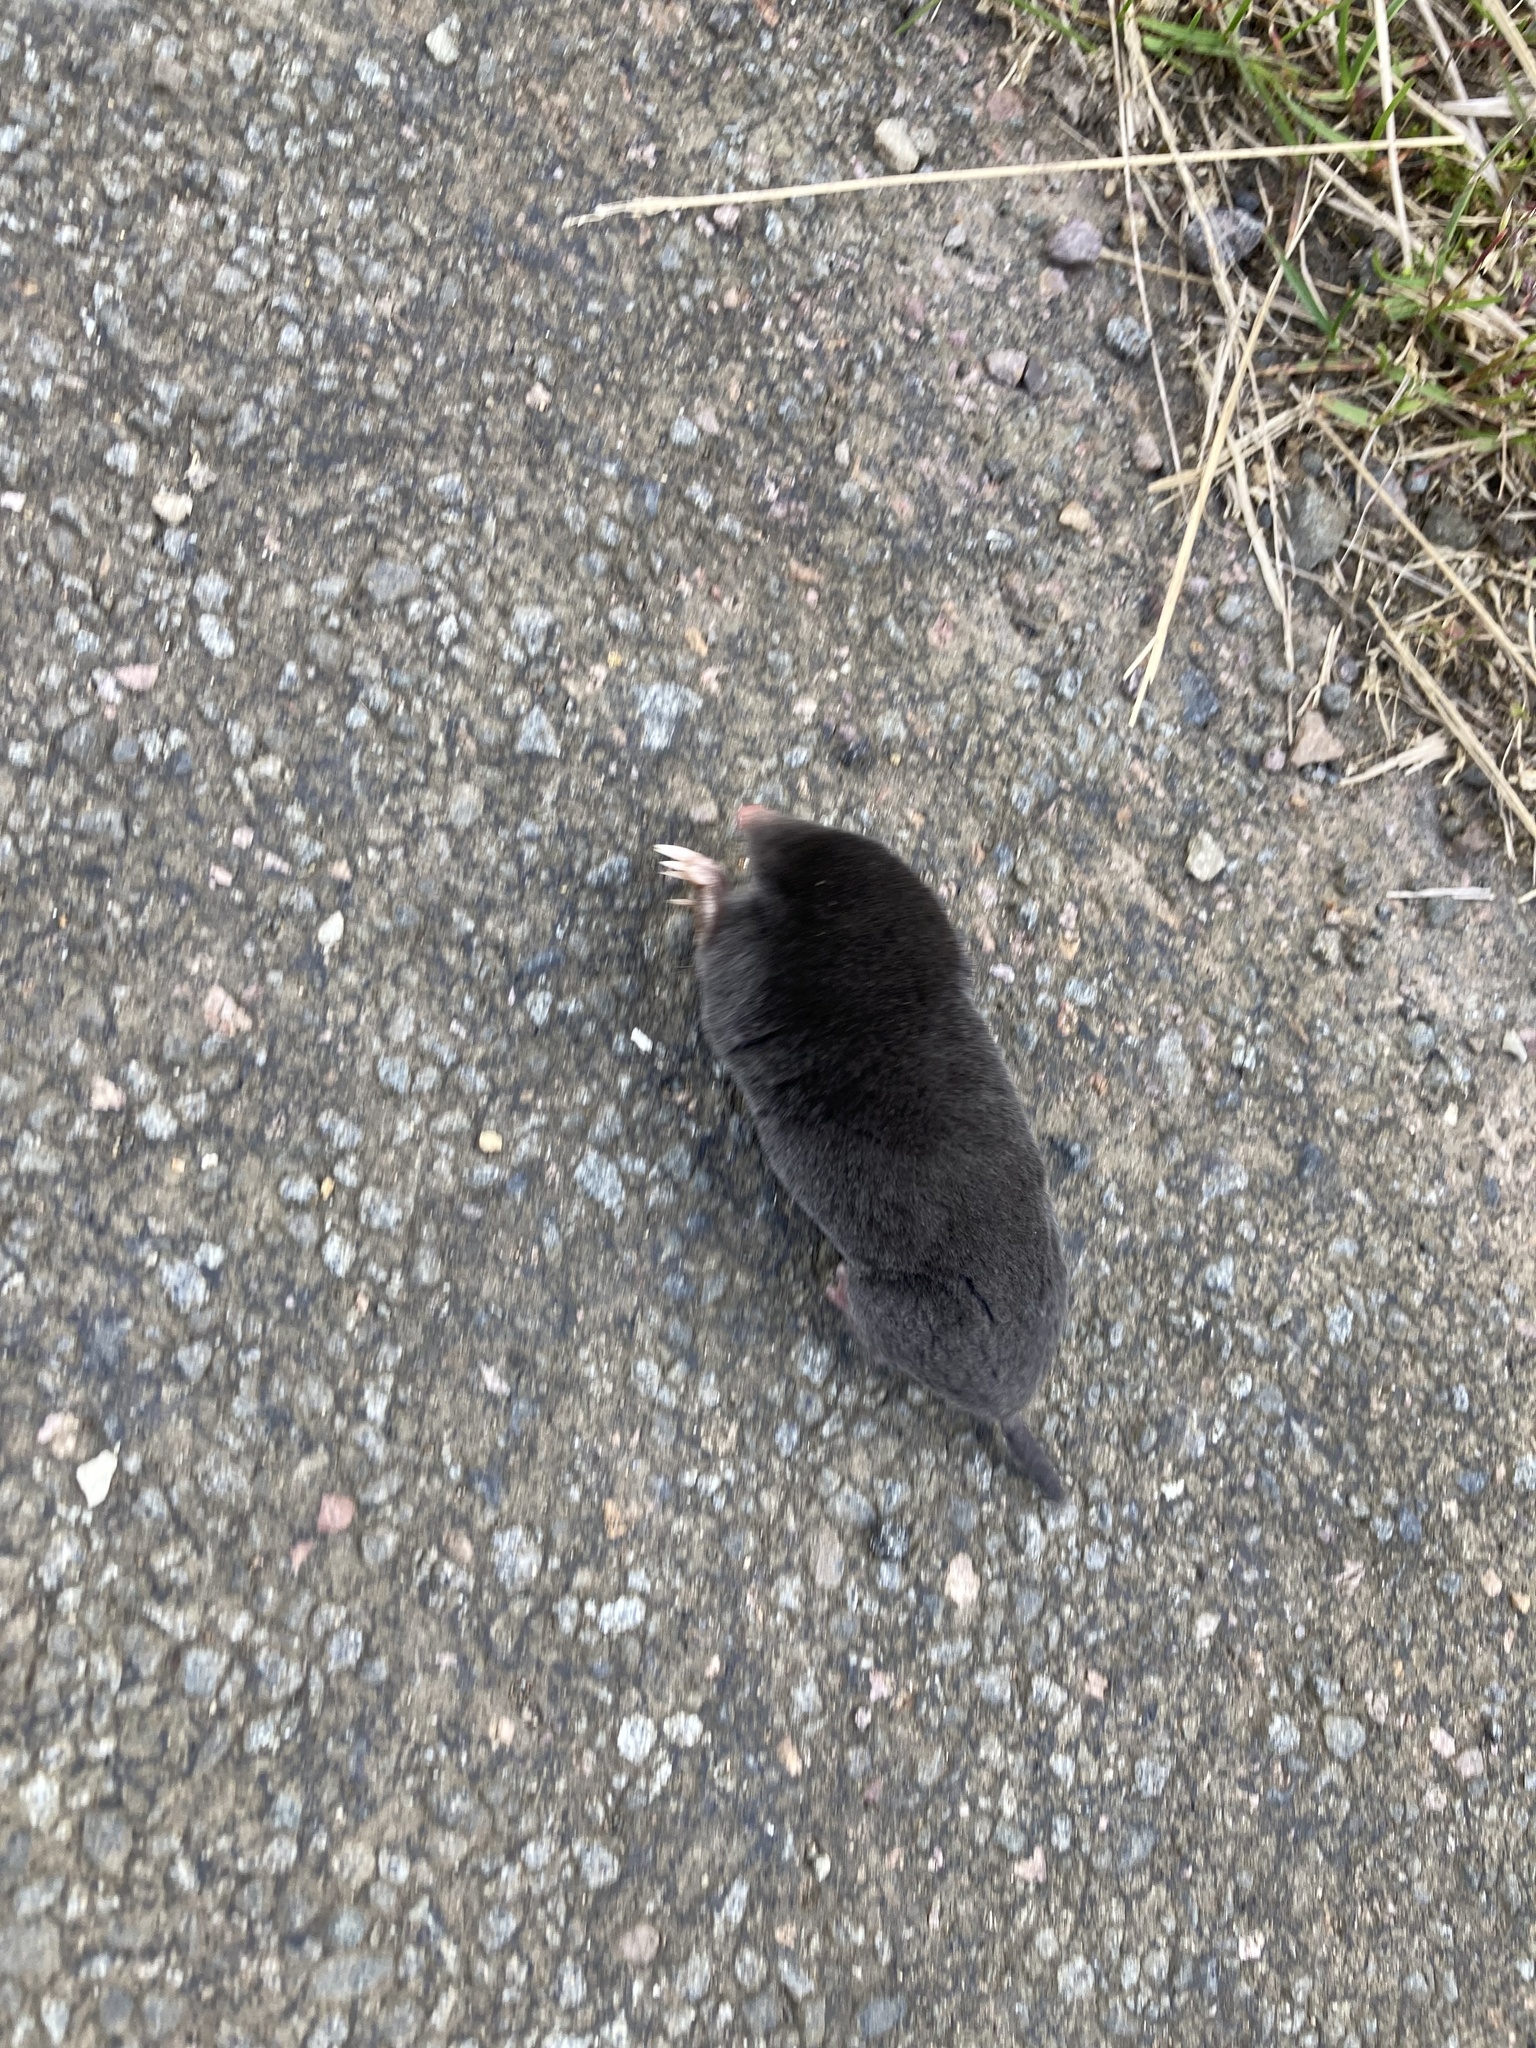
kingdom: Animalia
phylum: Chordata
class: Mammalia
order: Soricomorpha
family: Talpidae
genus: Talpa
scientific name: Talpa europaea
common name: European mole
